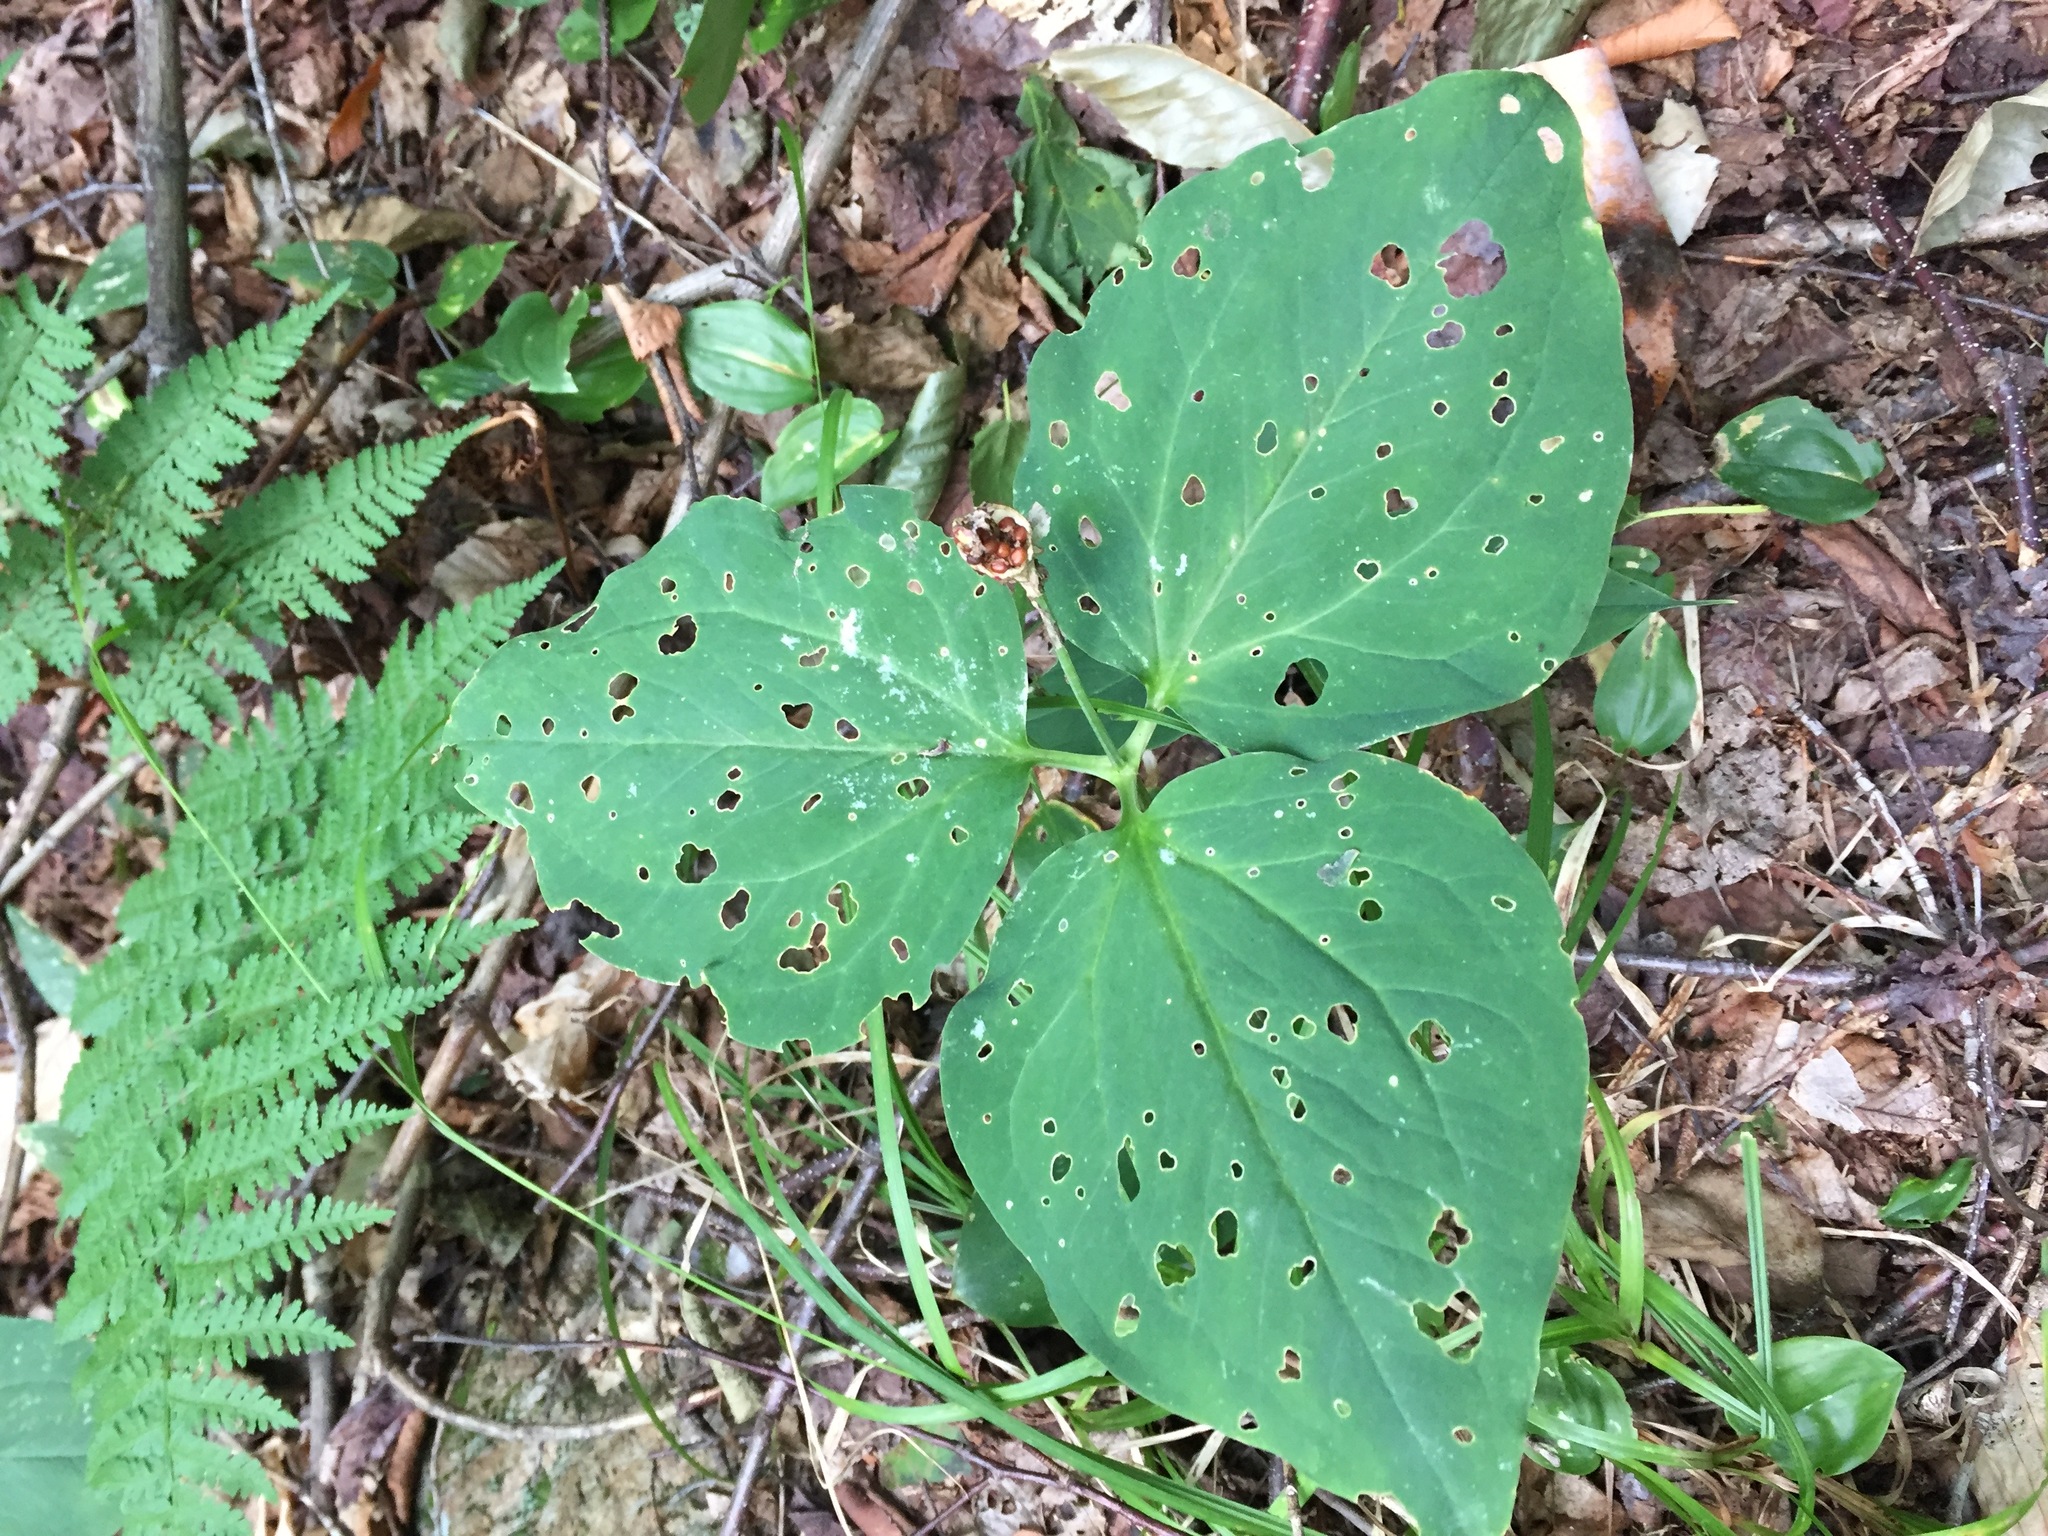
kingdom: Plantae
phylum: Tracheophyta
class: Liliopsida
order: Liliales
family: Melanthiaceae
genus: Trillium
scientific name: Trillium undulatum
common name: Paint trillium
